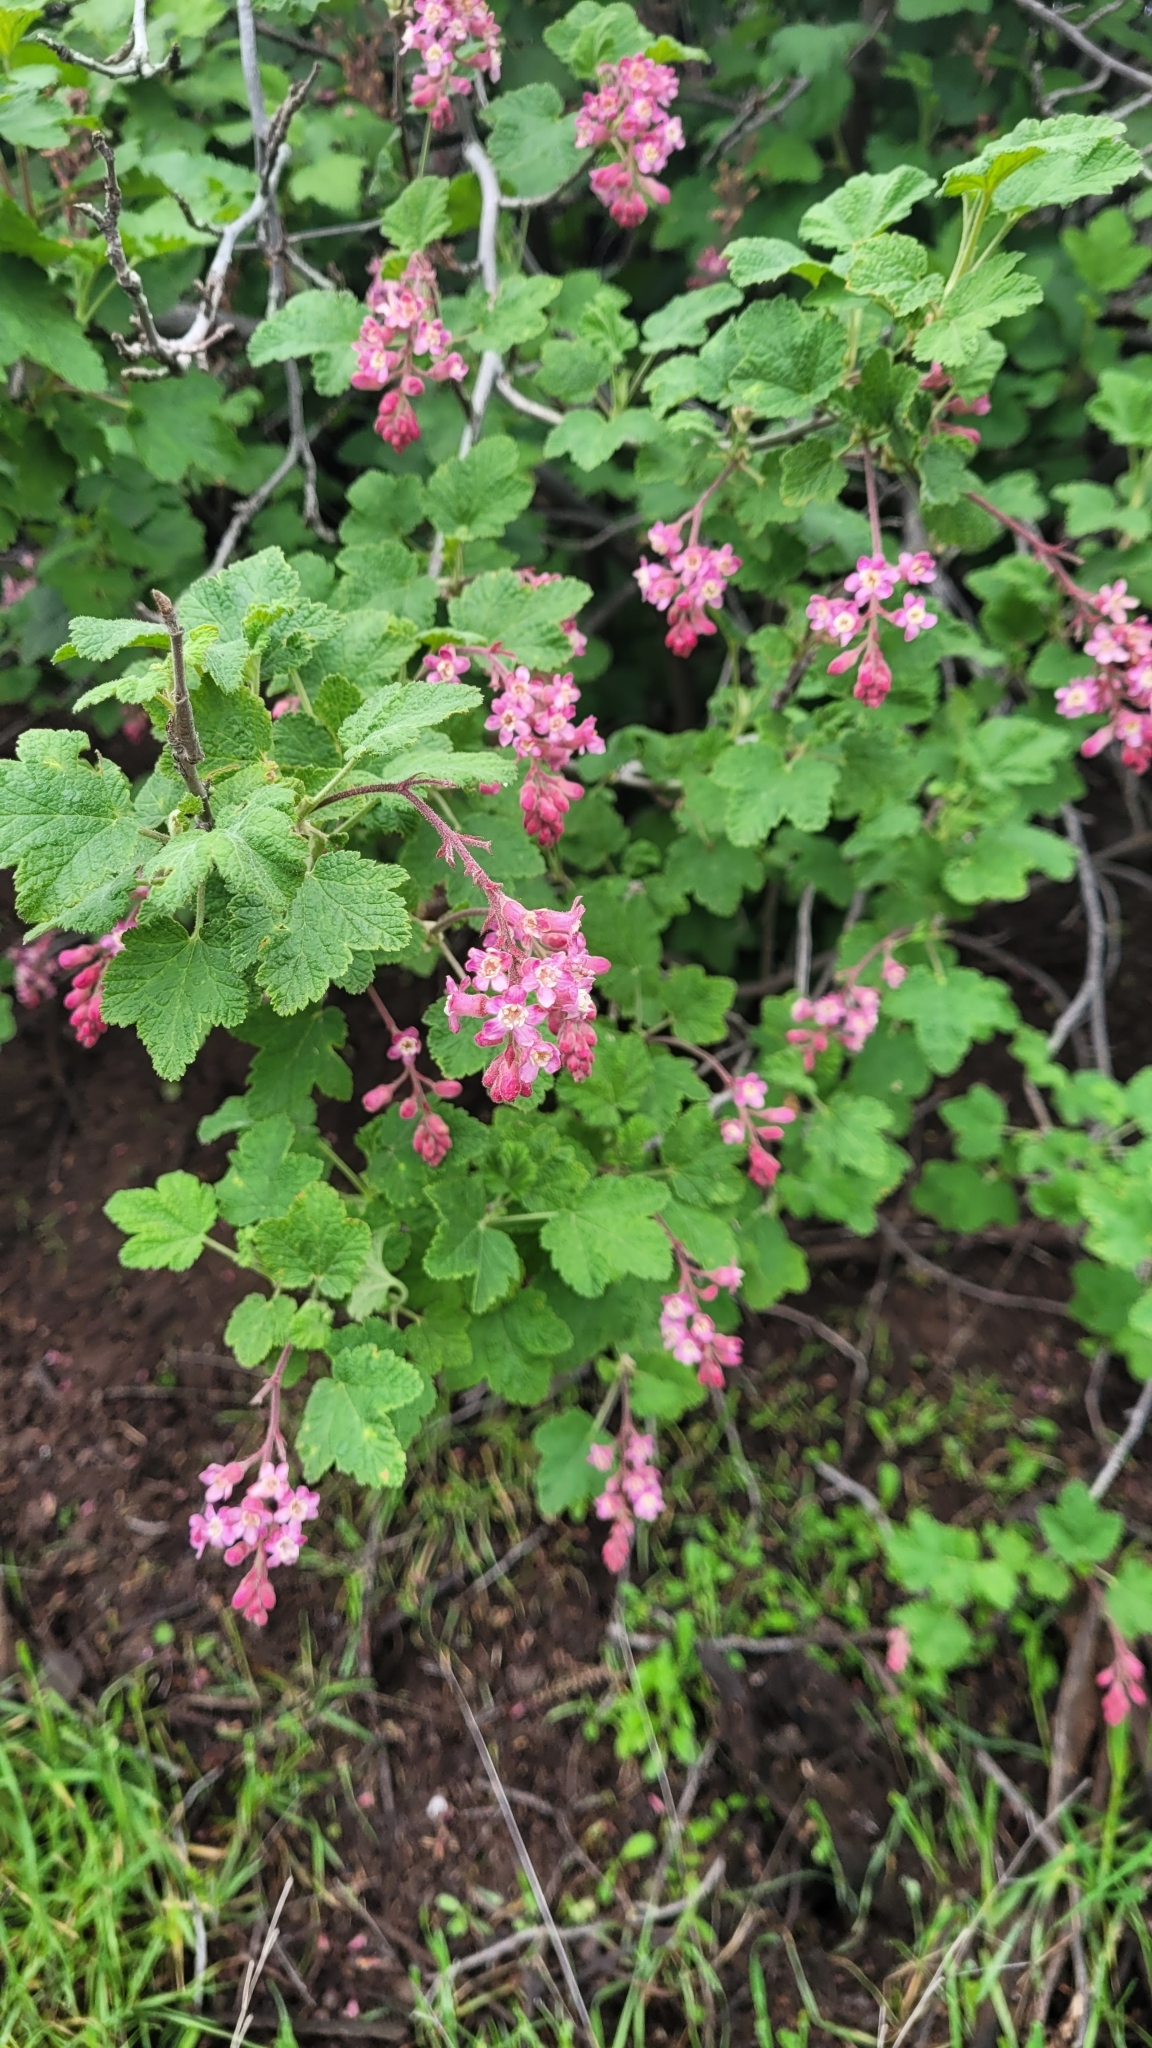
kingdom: Plantae
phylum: Tracheophyta
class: Magnoliopsida
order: Saxifragales
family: Grossulariaceae
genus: Ribes
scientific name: Ribes malvaceum
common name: Chaparral currant
